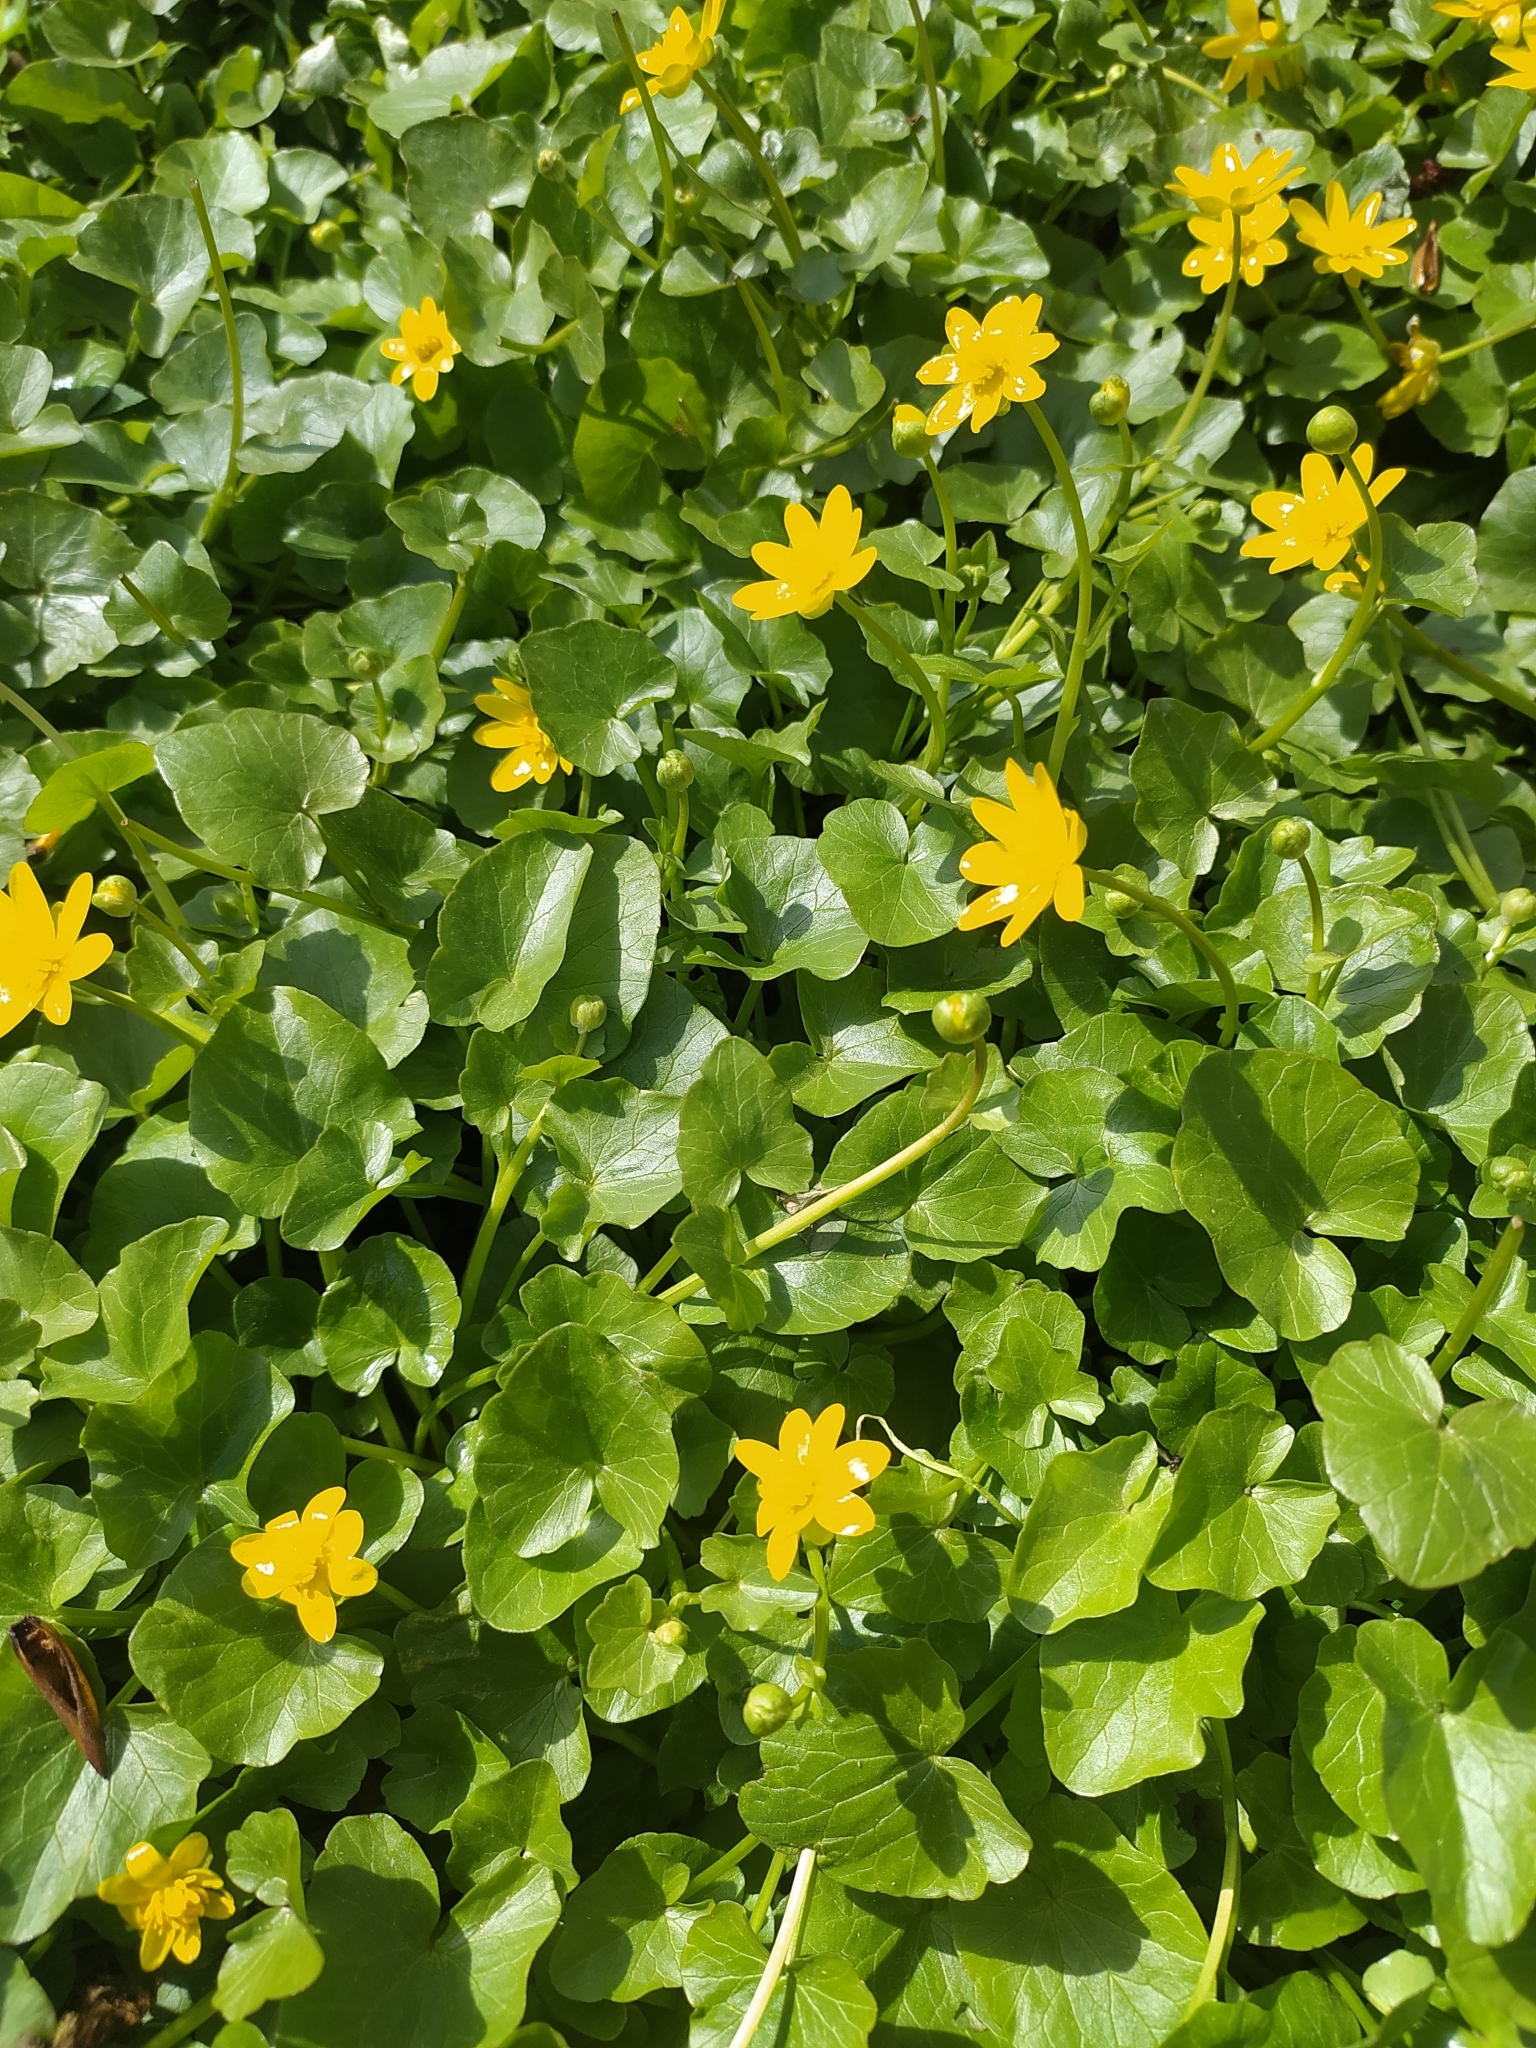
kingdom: Plantae
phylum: Tracheophyta
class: Magnoliopsida
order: Ranunculales
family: Ranunculaceae
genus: Ficaria
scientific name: Ficaria verna
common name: Lesser celandine
